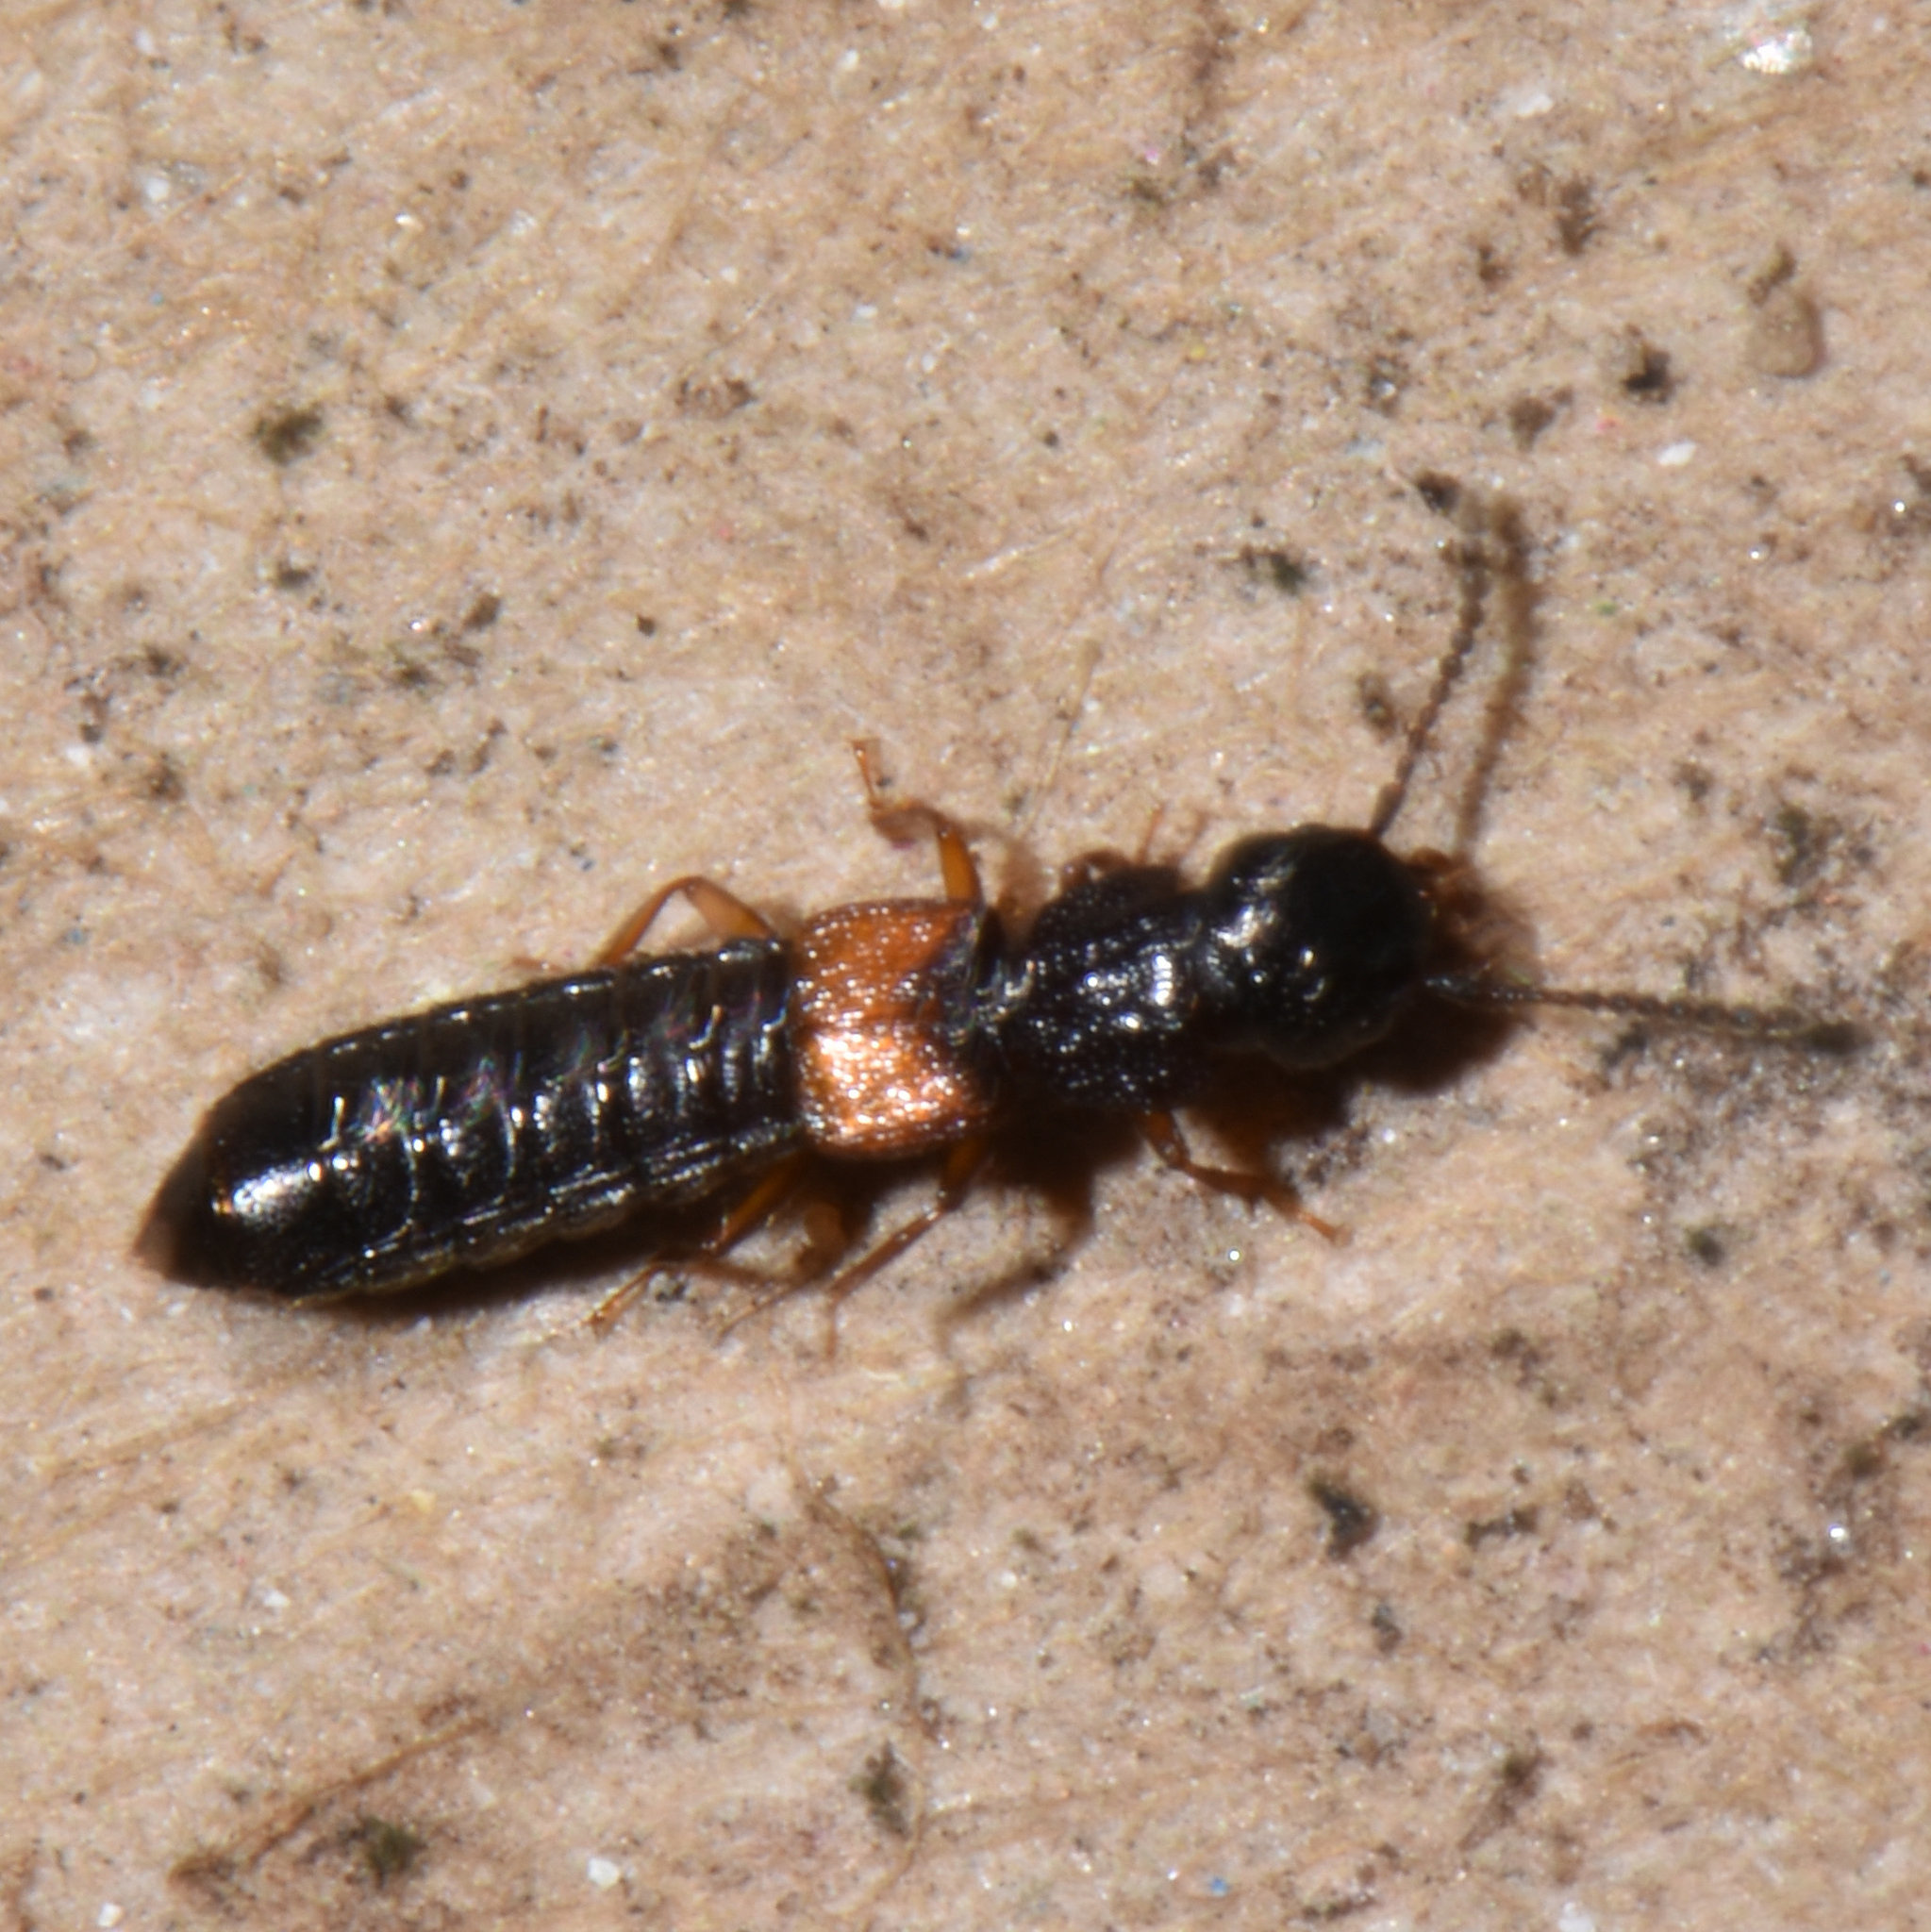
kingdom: Animalia
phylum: Arthropoda
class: Insecta
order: Coleoptera
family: Staphylinidae
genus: Anotylus
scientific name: Anotylus insecatus
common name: Rove beetle
